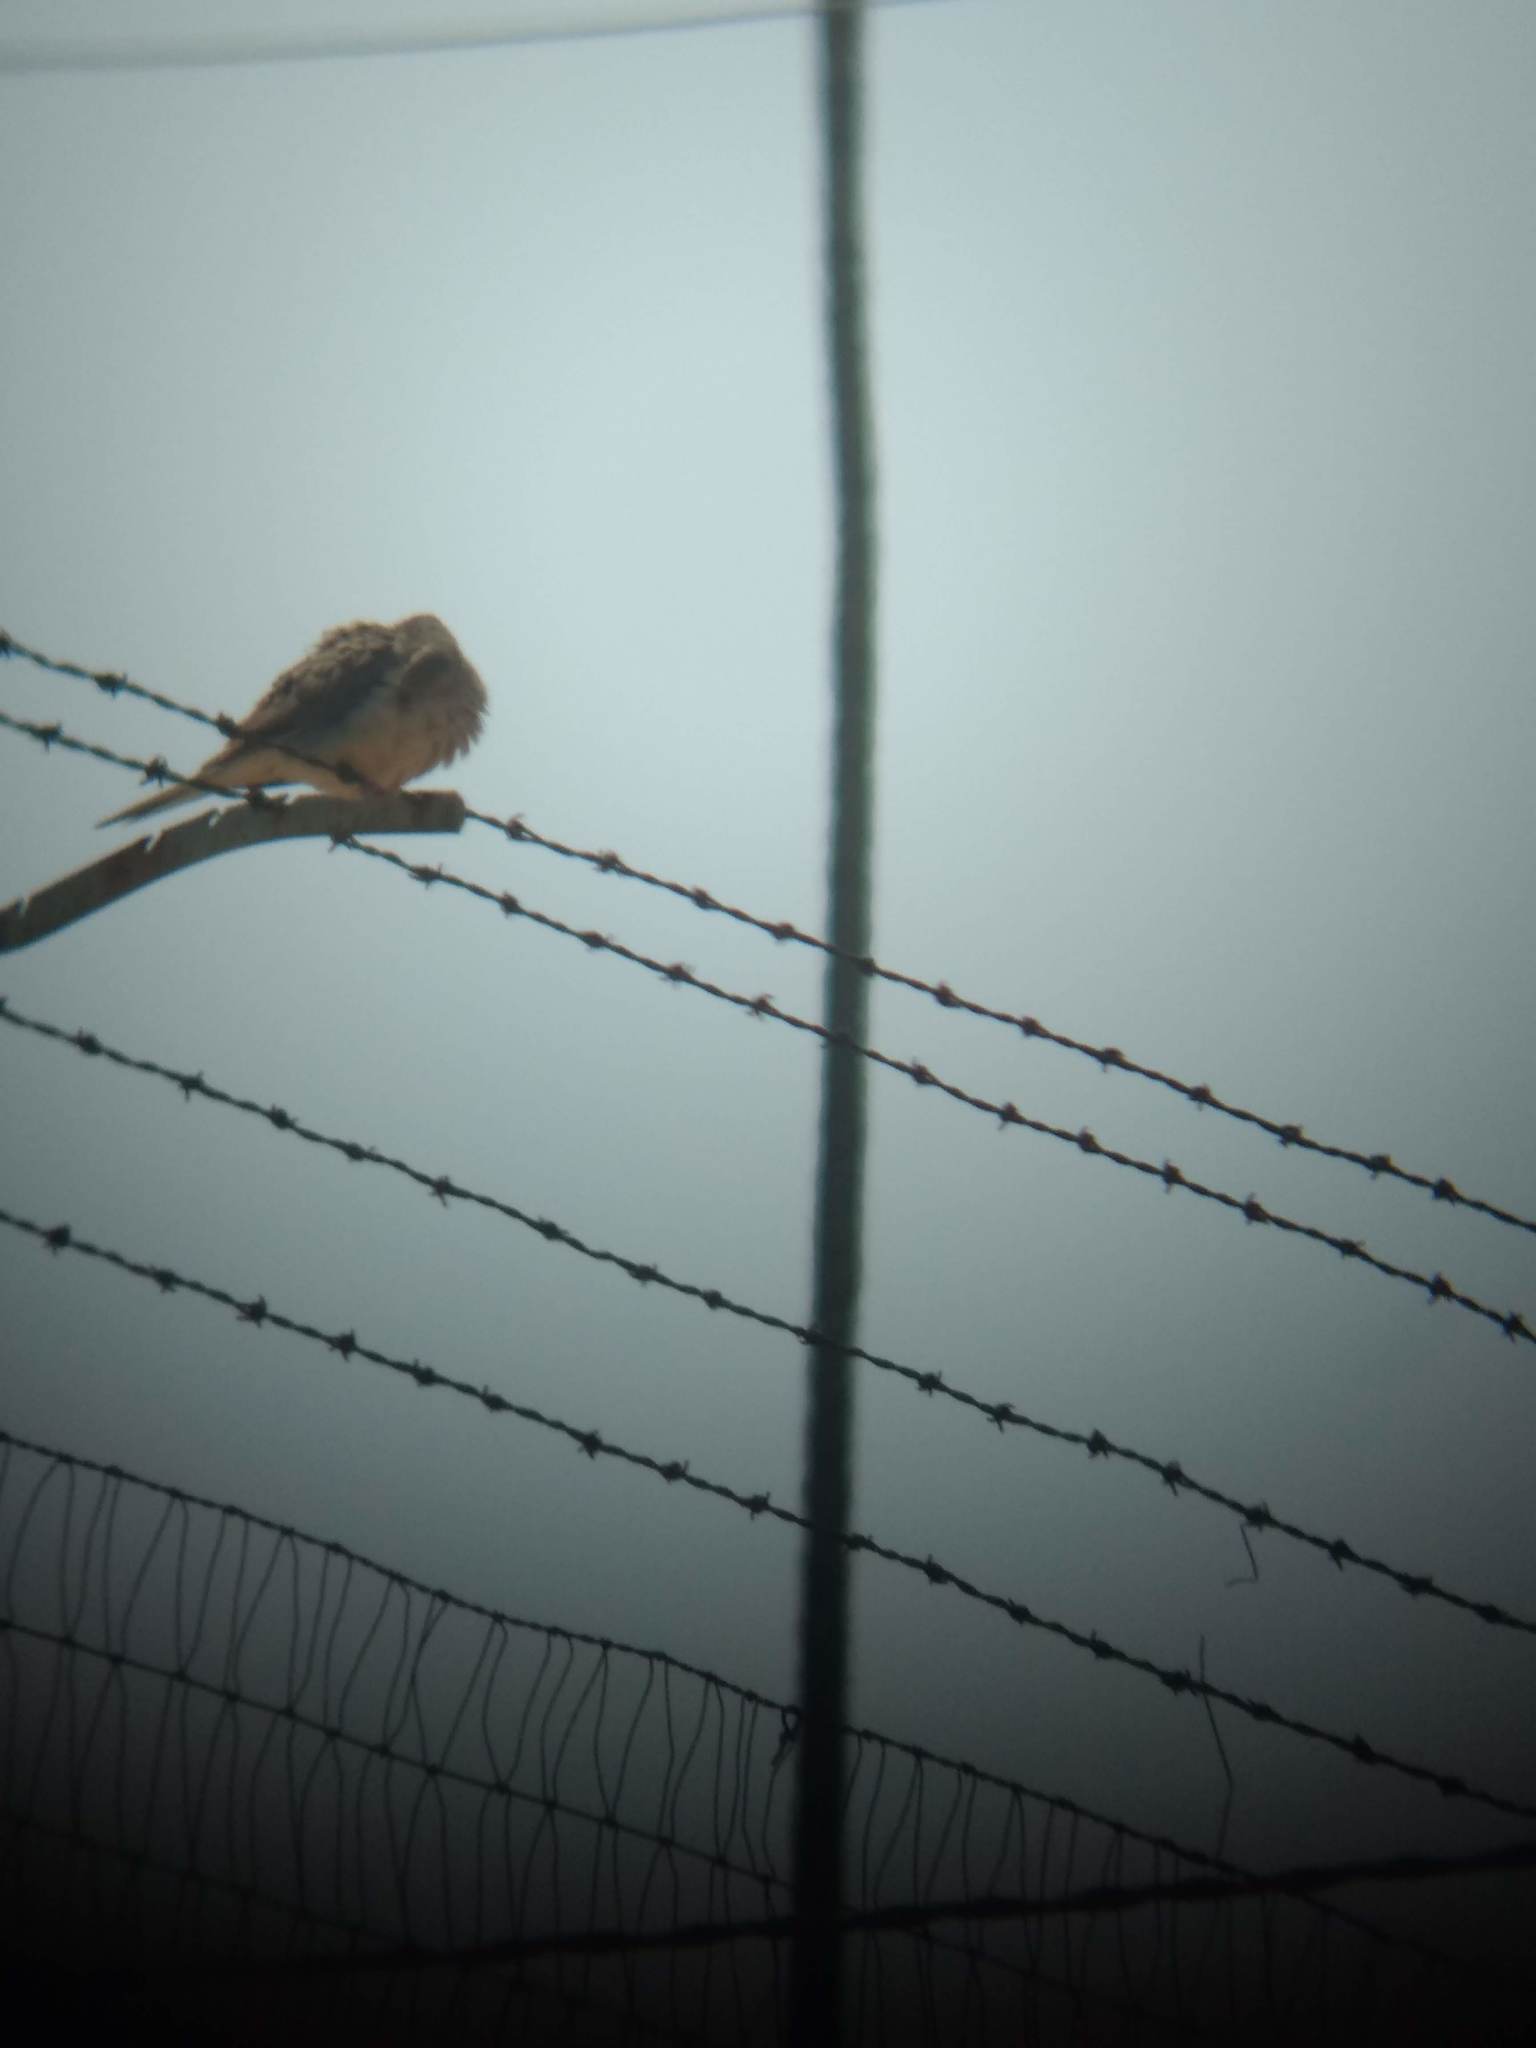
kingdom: Animalia
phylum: Chordata
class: Aves
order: Columbiformes
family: Columbidae
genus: Zenaida
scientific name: Zenaida macroura
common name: Mourning dove
